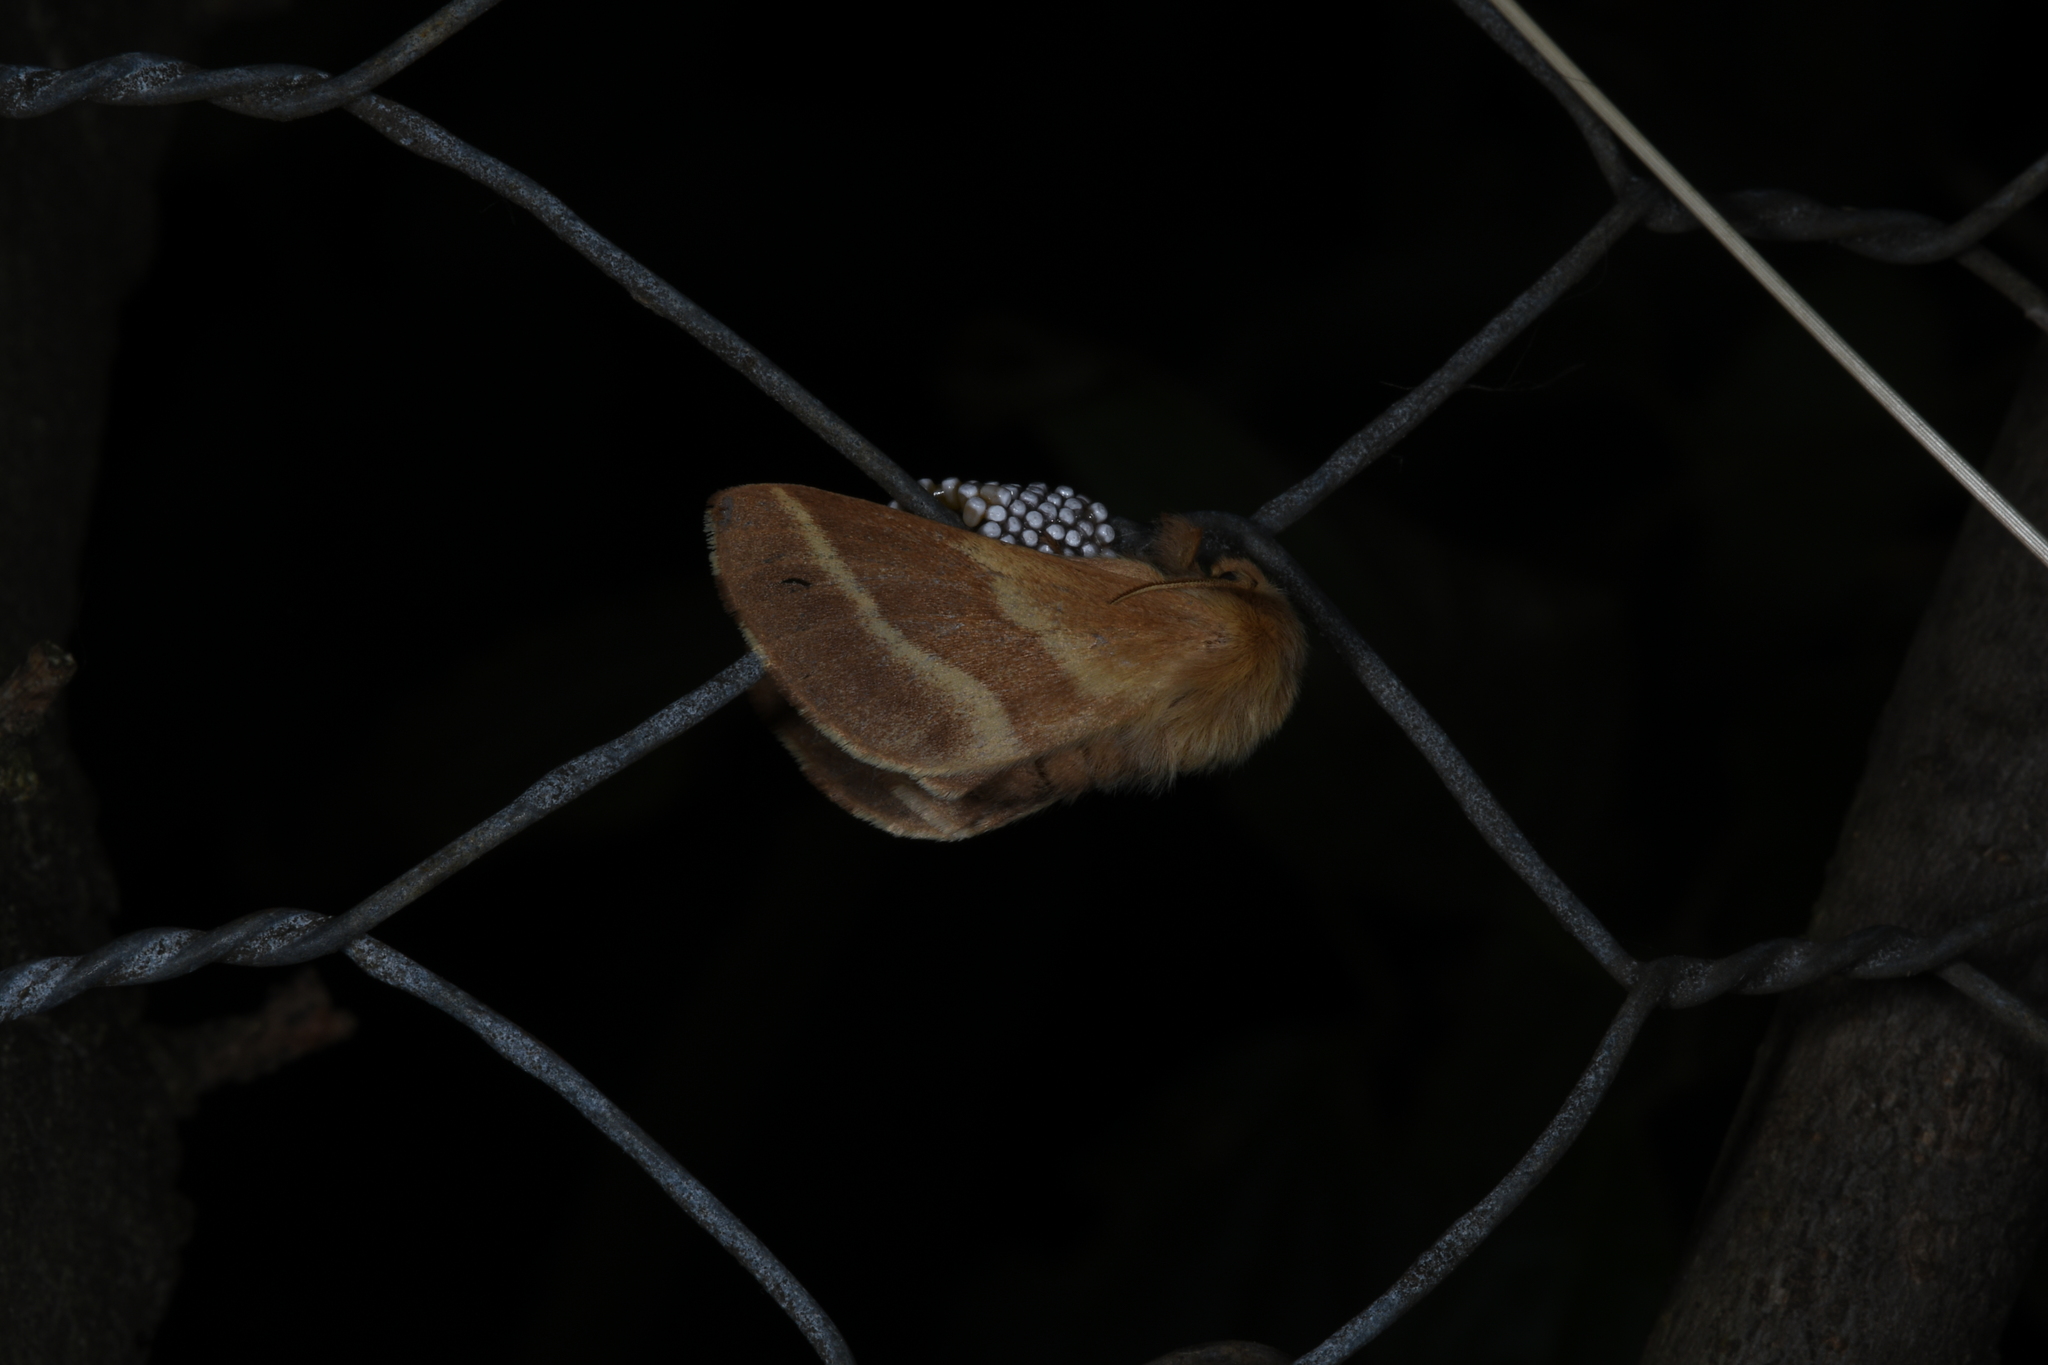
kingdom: Animalia
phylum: Arthropoda
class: Insecta
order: Lepidoptera
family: Lasiocampidae
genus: Malacosoma
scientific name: Malacosoma neustria
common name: The lackey
